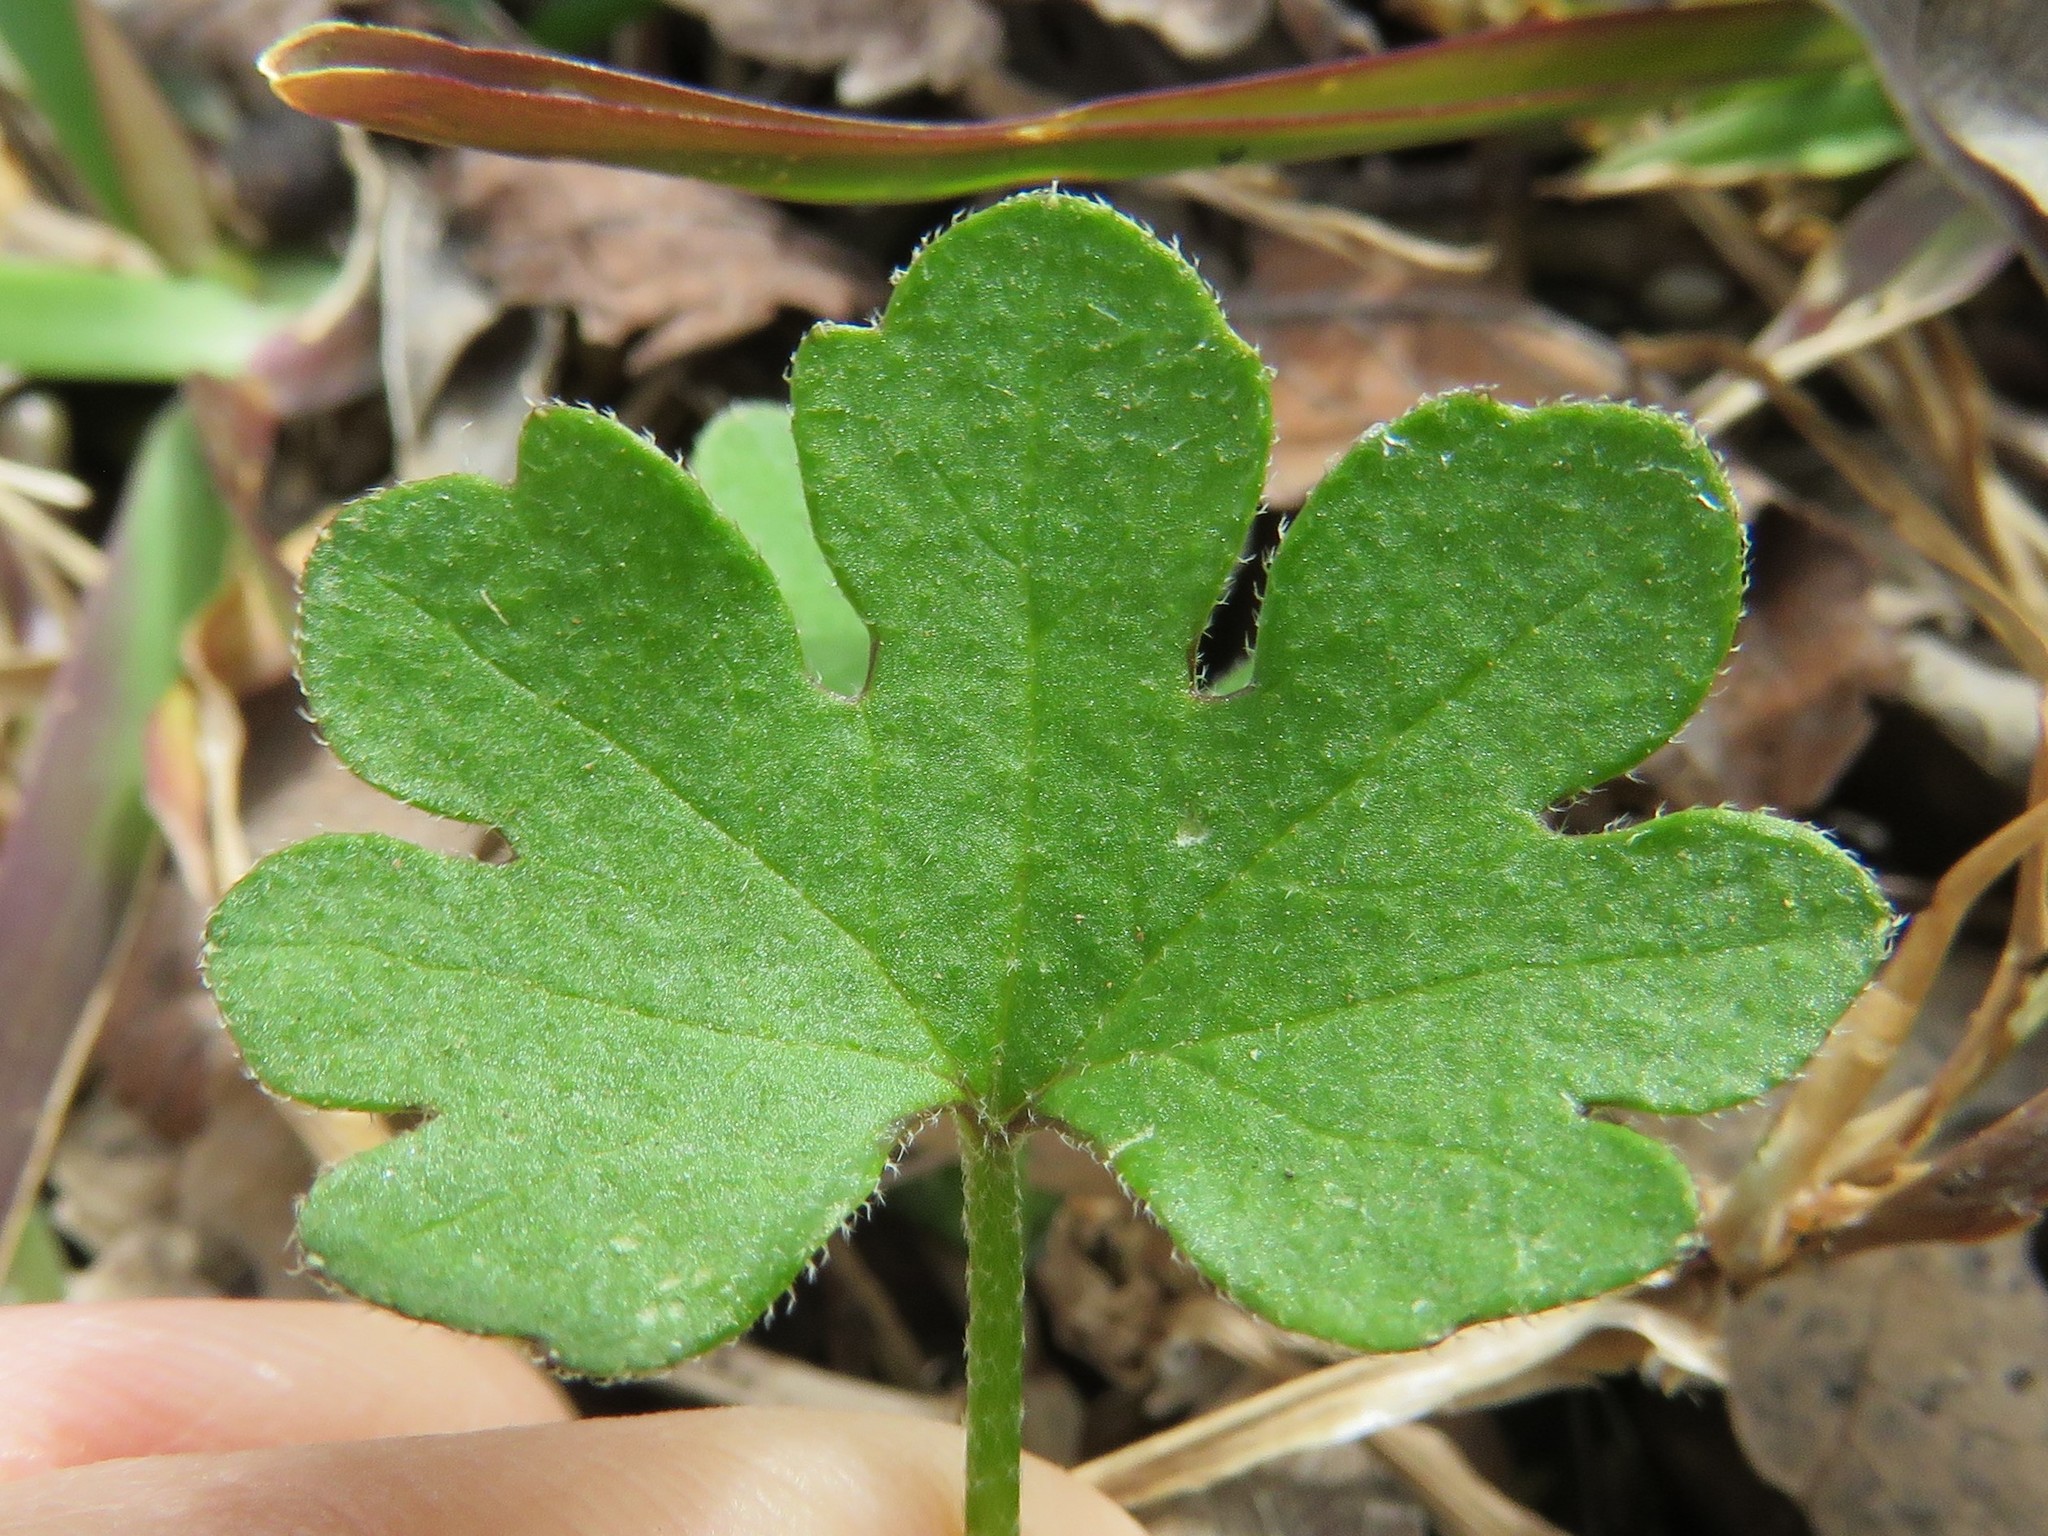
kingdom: Plantae
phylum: Tracheophyta
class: Magnoliopsida
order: Apiales
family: Apiaceae
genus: Bowlesia
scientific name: Bowlesia incana
